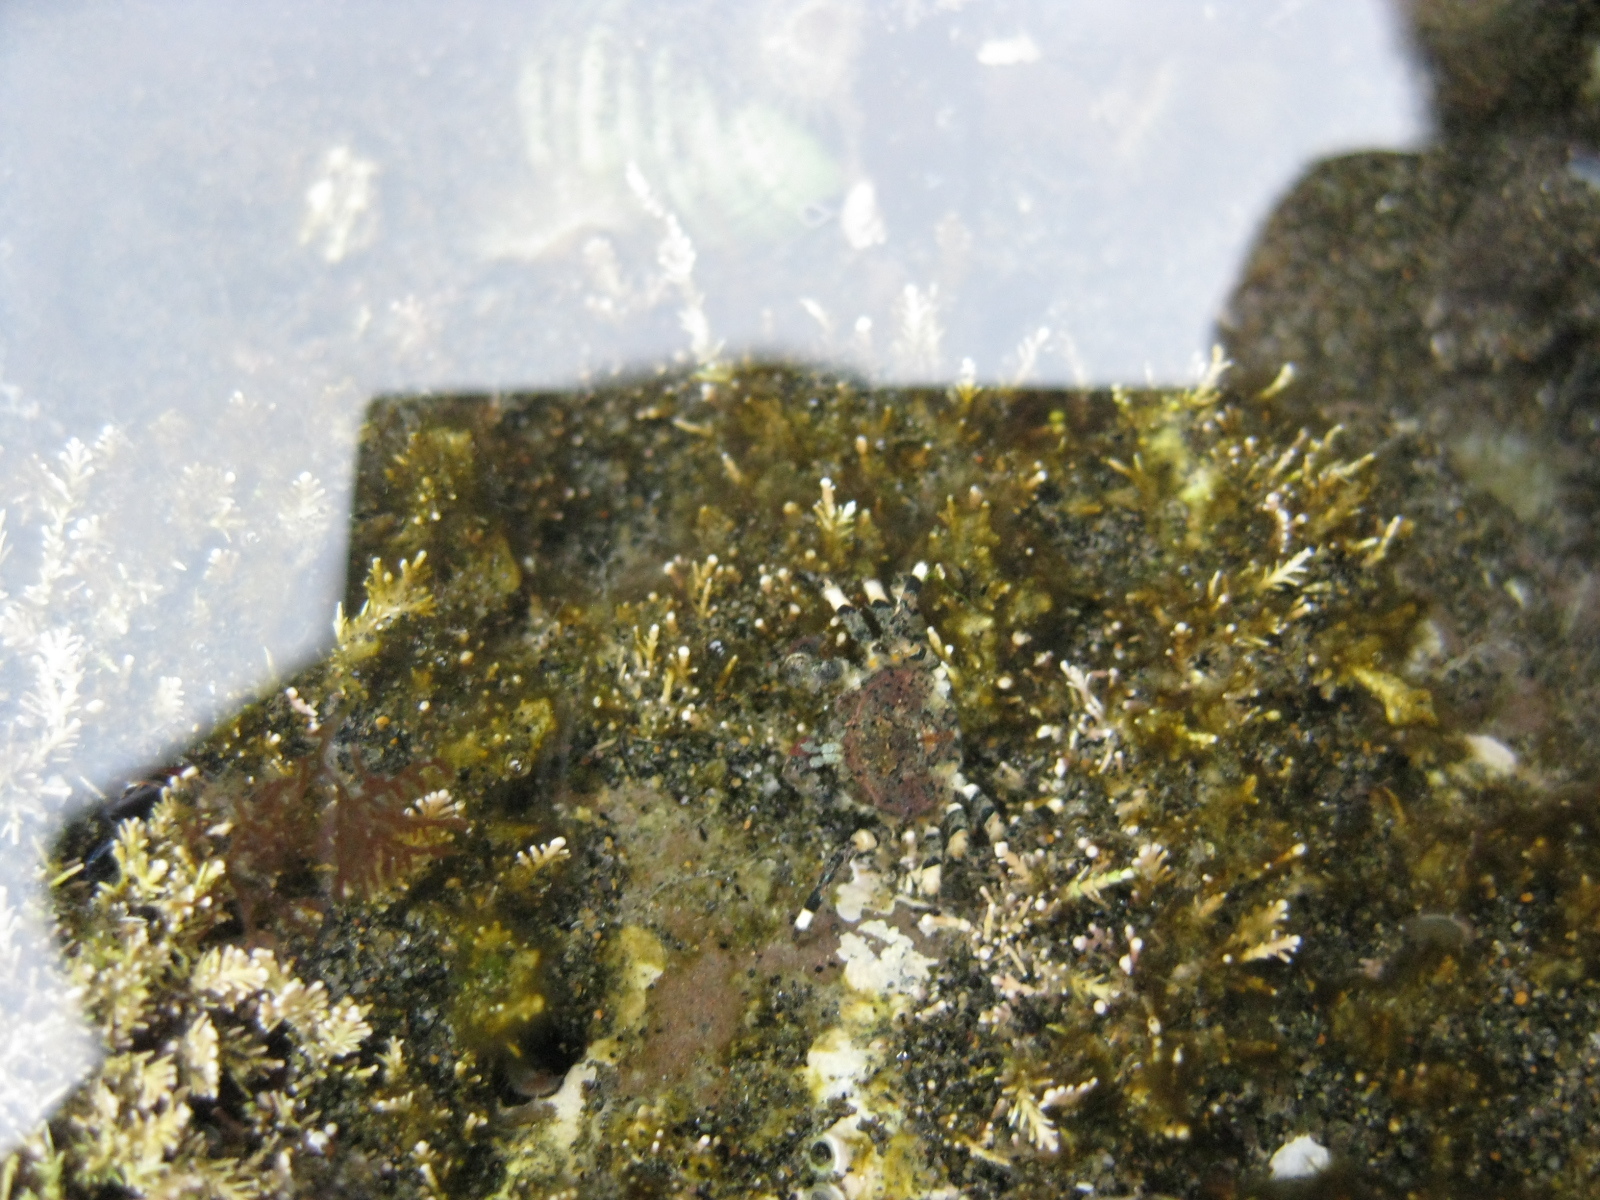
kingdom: Animalia
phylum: Arthropoda
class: Malacostraca
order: Decapoda
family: Hymenosomatidae
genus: Halicarcinus
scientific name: Halicarcinus cookii
